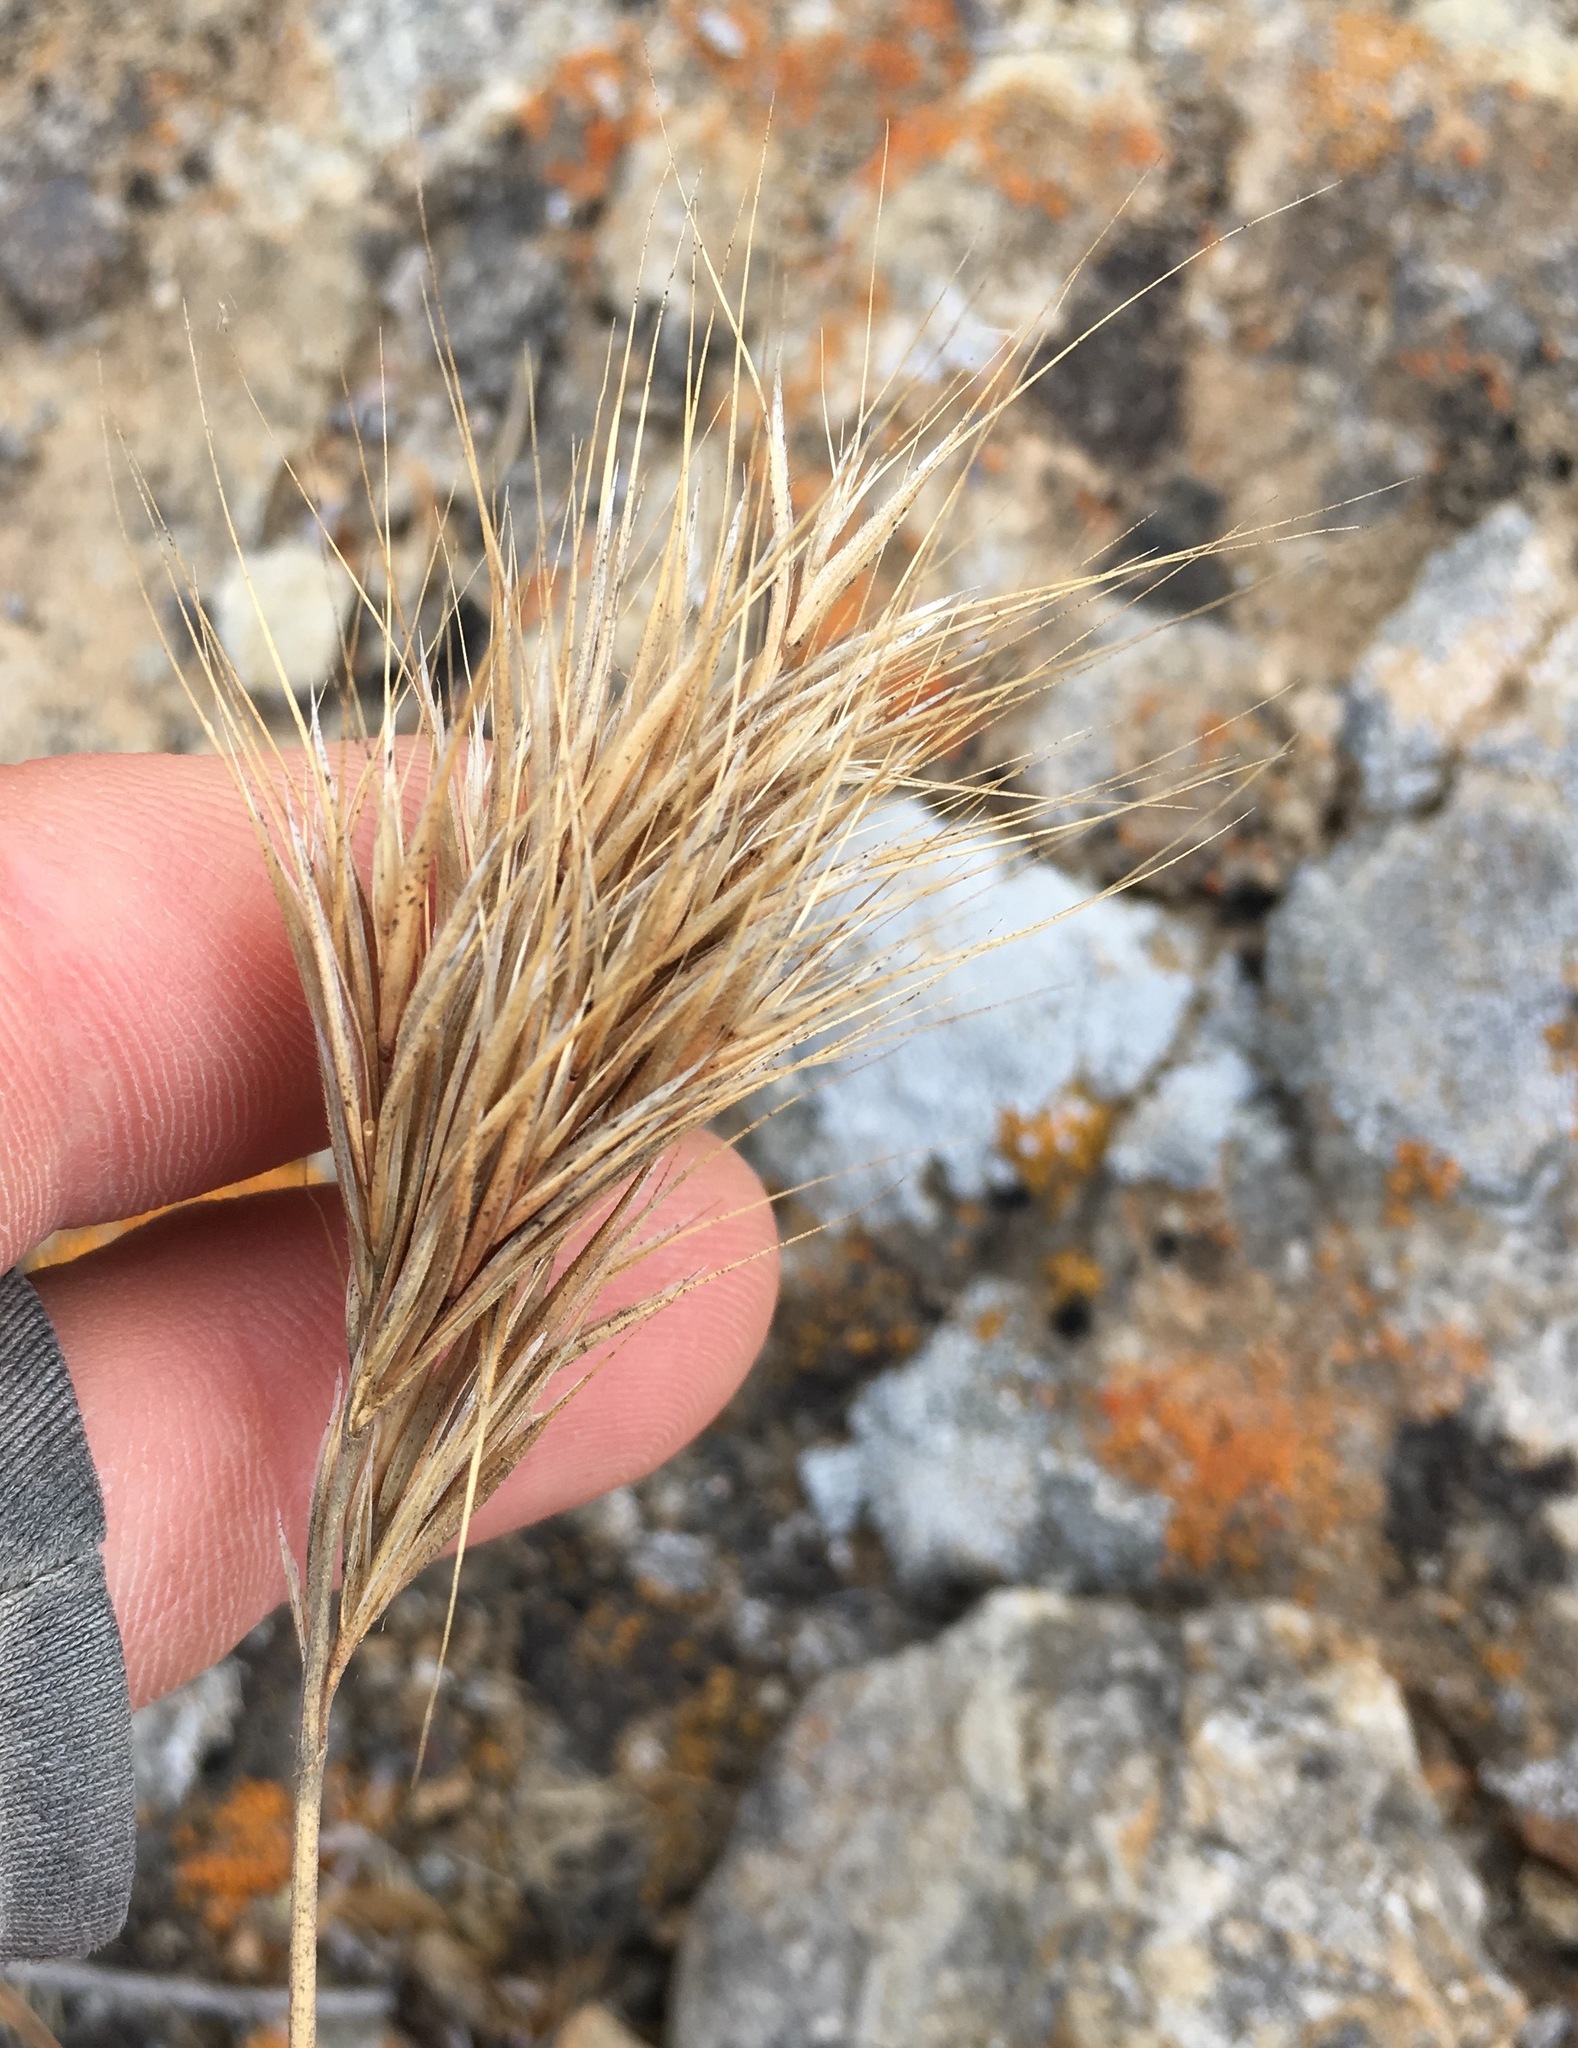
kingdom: Plantae
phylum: Tracheophyta
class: Liliopsida
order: Poales
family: Poaceae
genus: Bromus
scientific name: Bromus rubens
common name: Red brome
